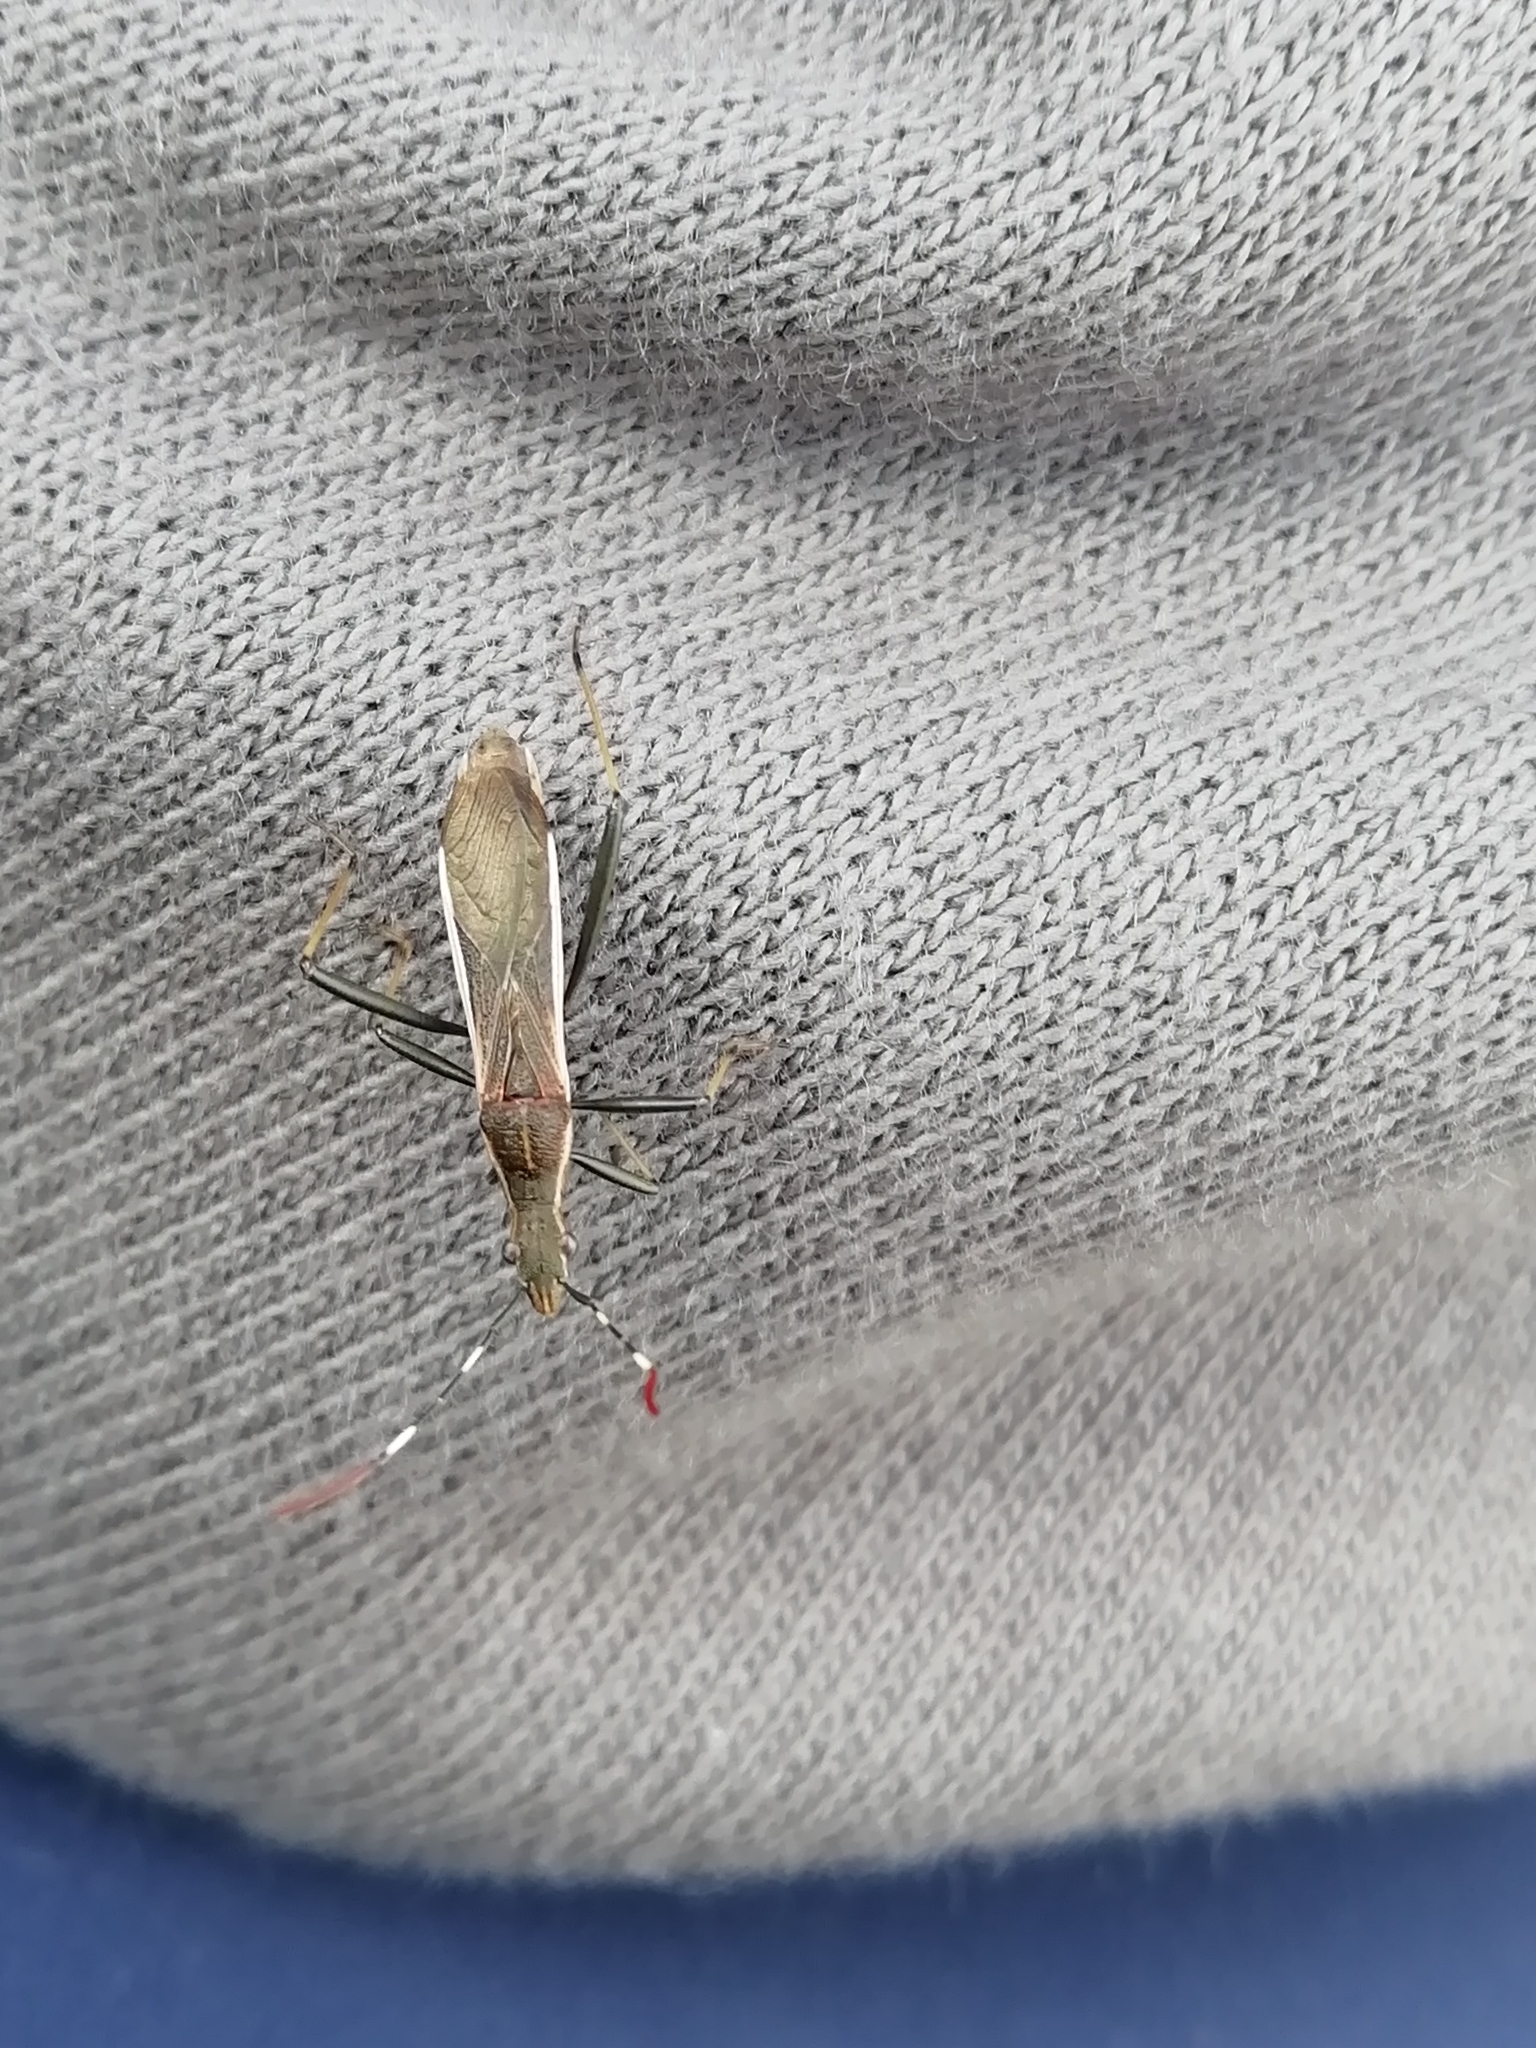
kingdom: Animalia
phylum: Arthropoda
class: Insecta
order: Hemiptera
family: Alydidae
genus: Micrelytra
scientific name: Micrelytra fossularum
